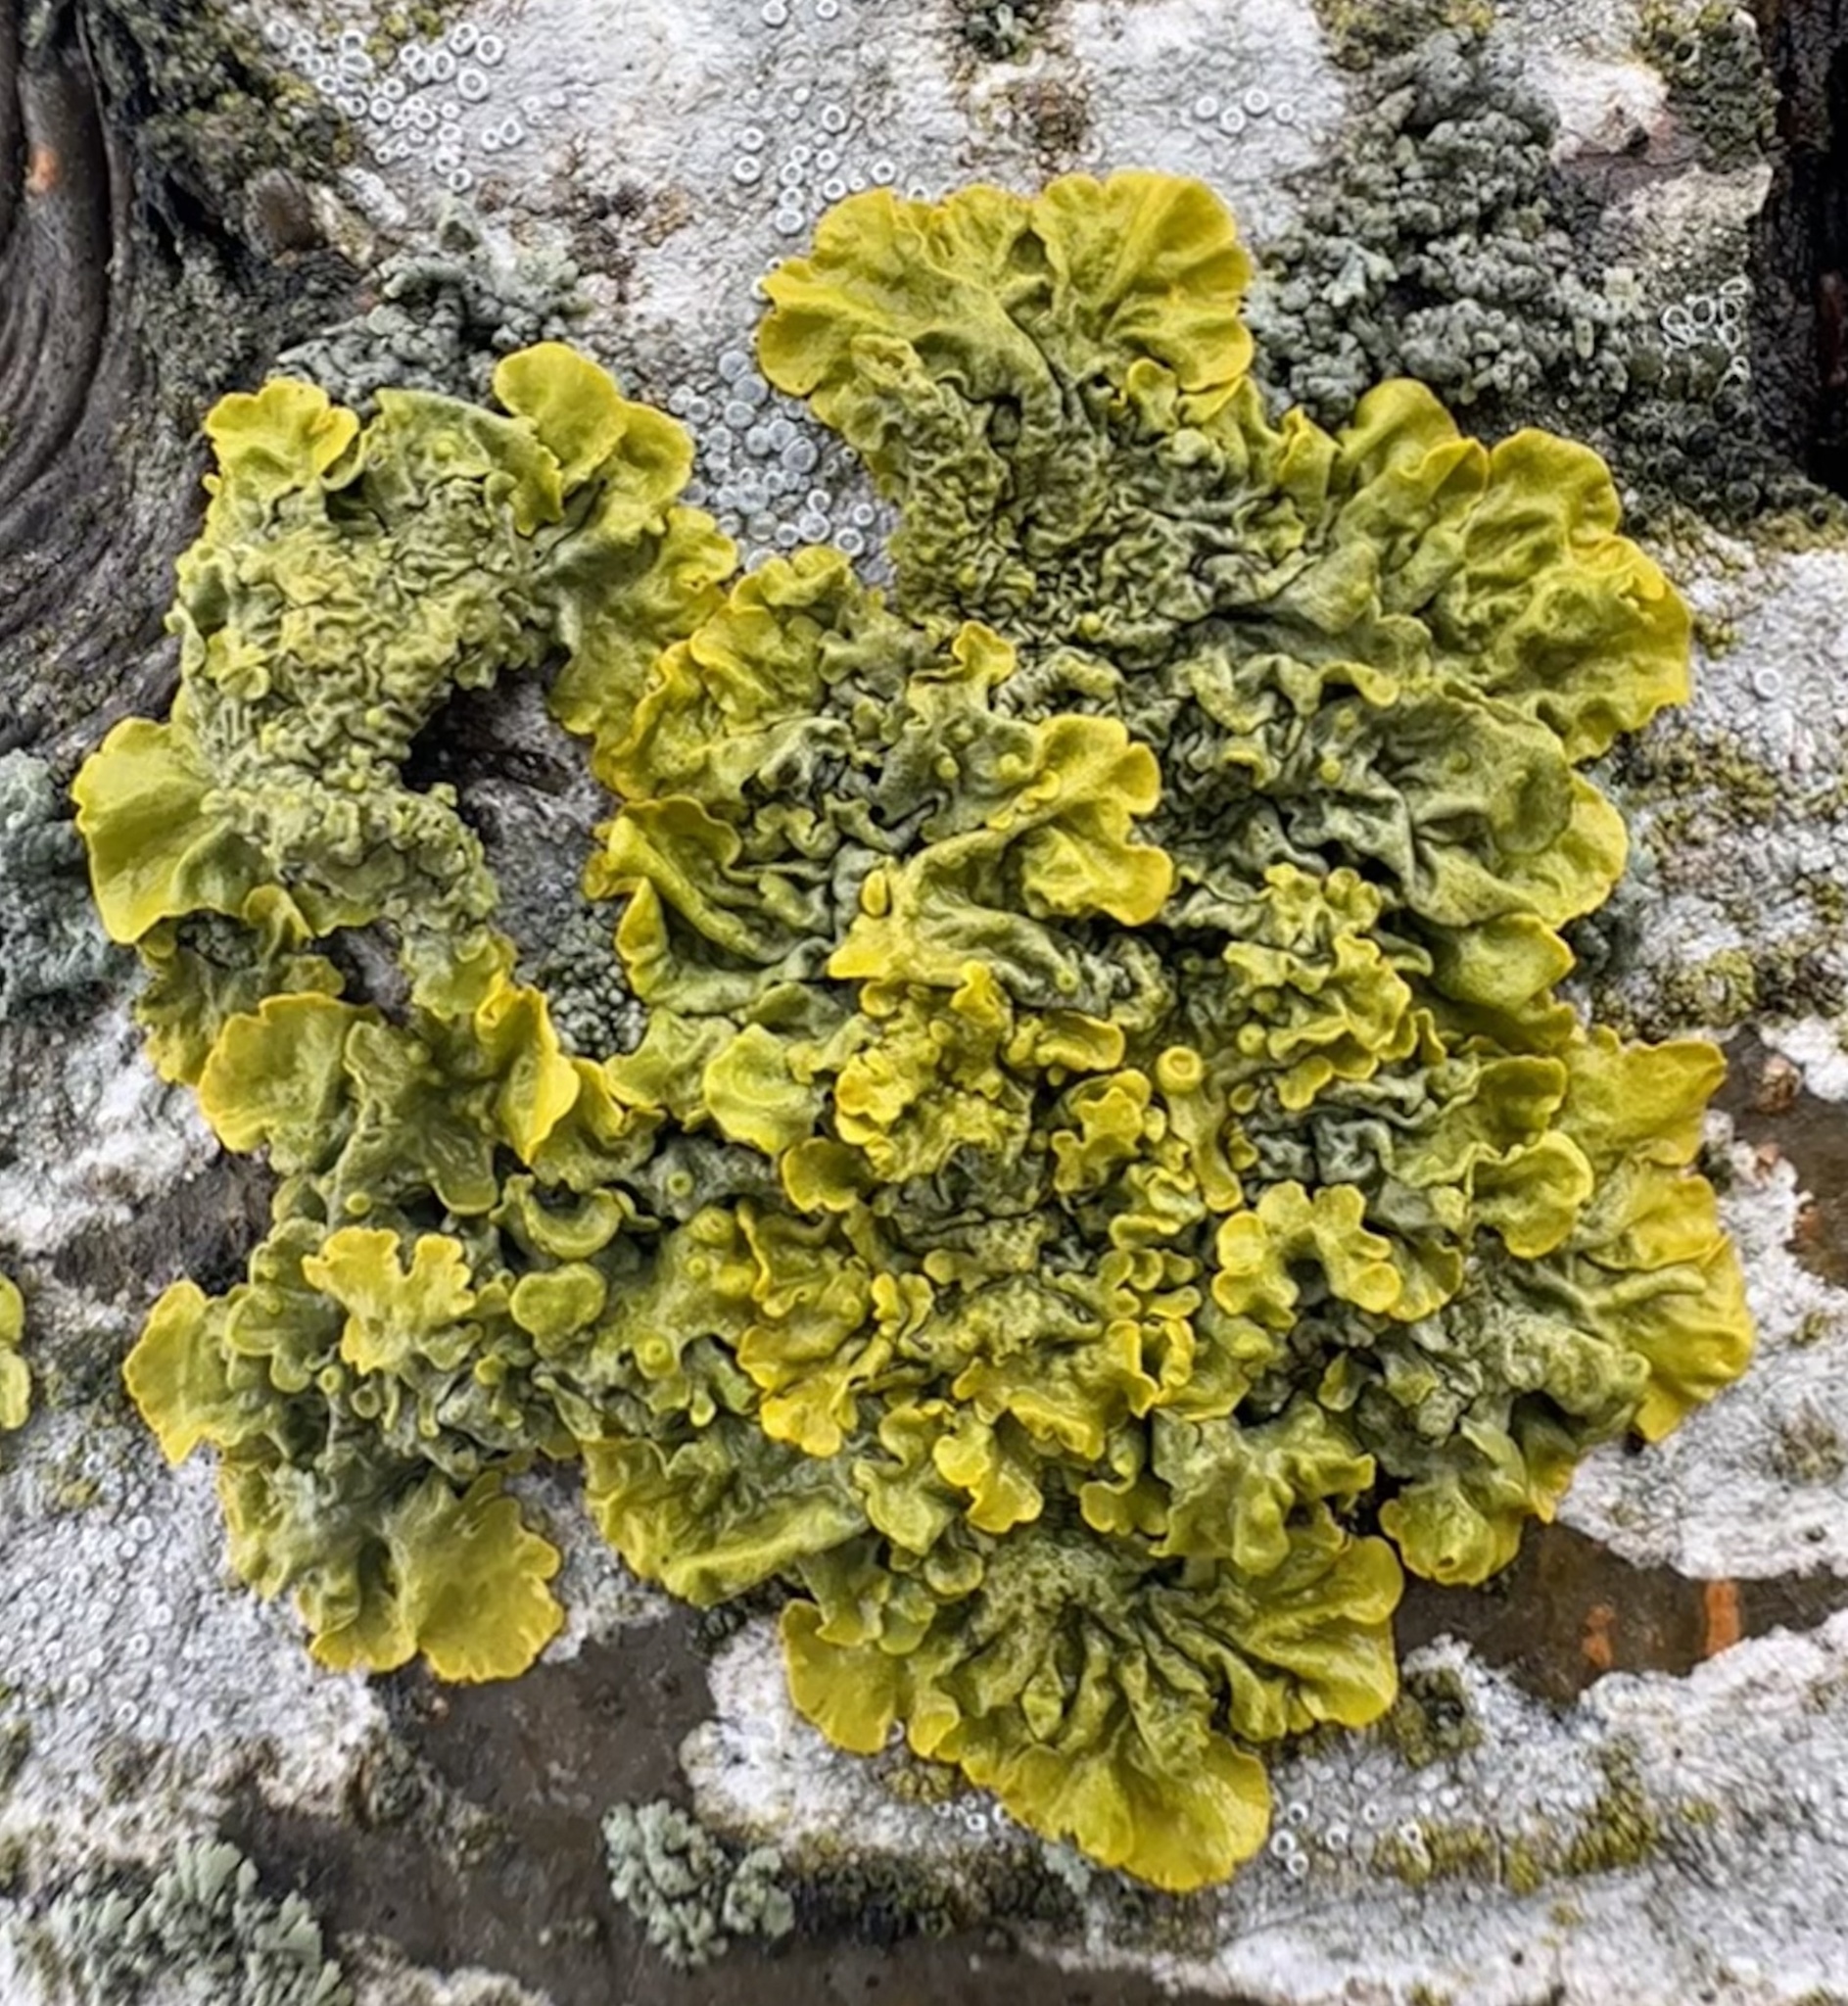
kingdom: Fungi
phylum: Ascomycota
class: Lecanoromycetes
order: Teloschistales
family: Teloschistaceae
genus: Xanthoria
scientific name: Xanthoria parietina
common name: Common orange lichen
